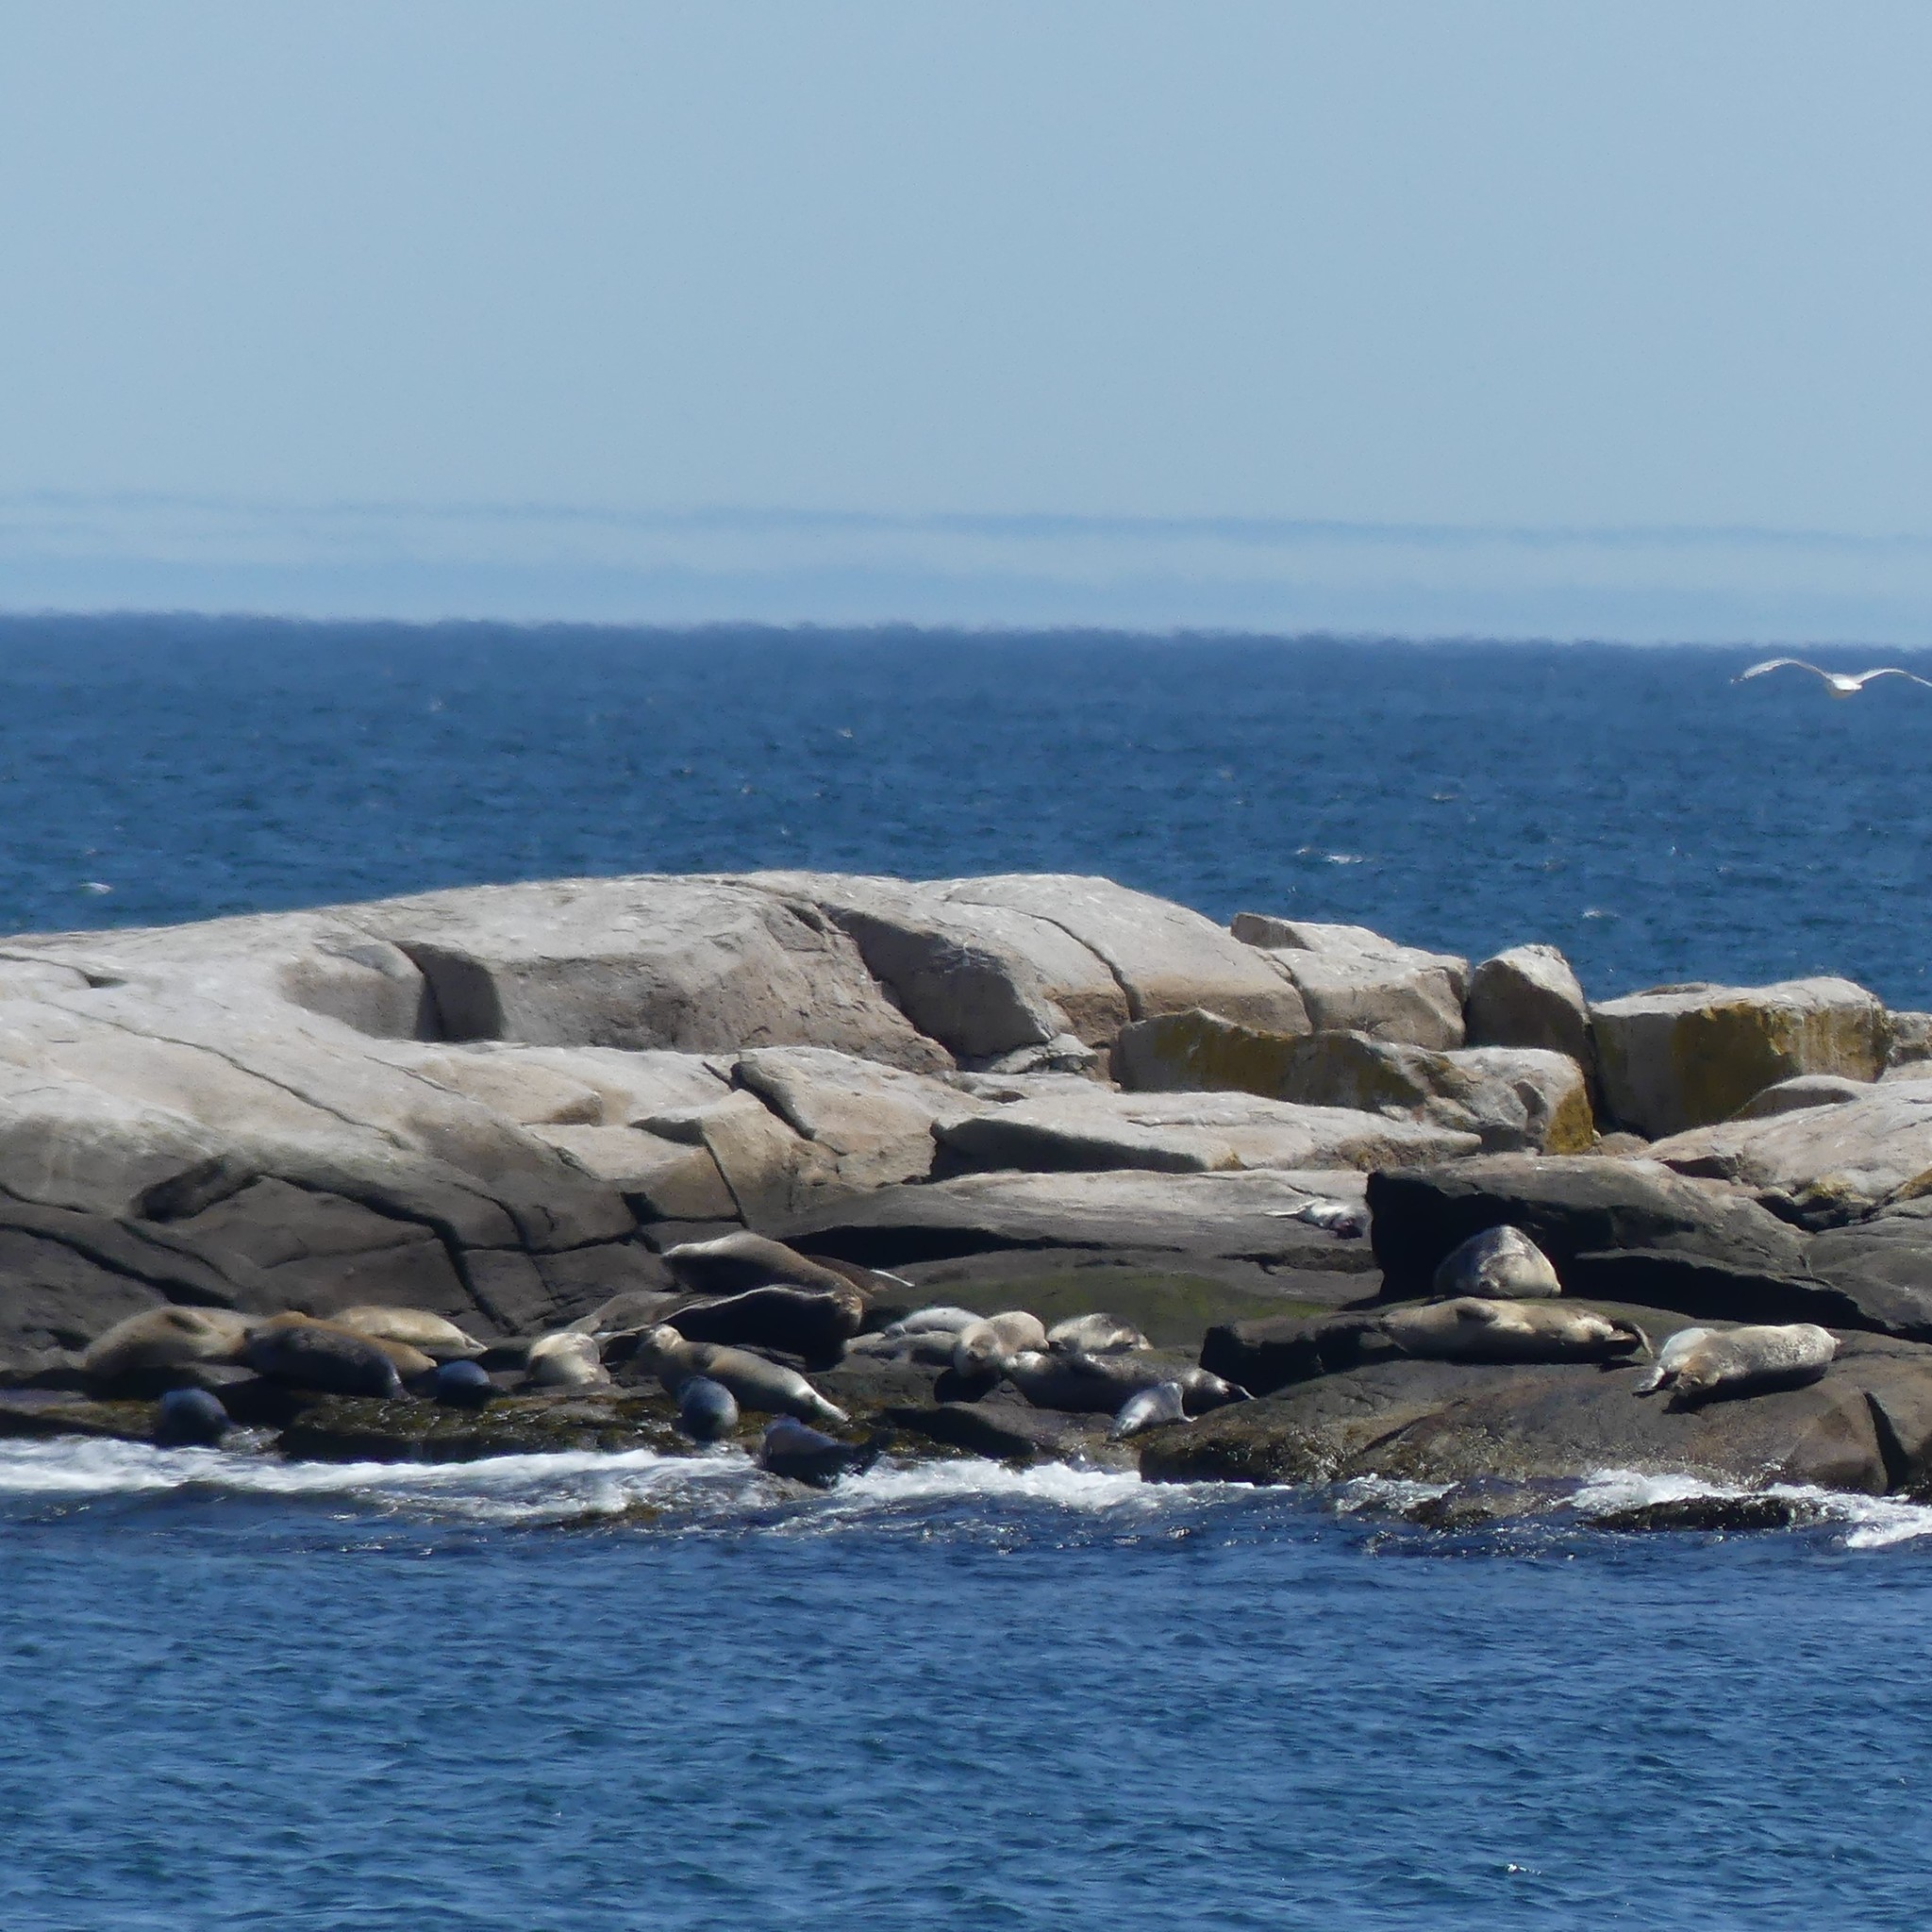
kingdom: Animalia
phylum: Chordata
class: Mammalia
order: Carnivora
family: Phocidae
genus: Phoca
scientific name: Phoca vitulina
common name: Harbor seal
